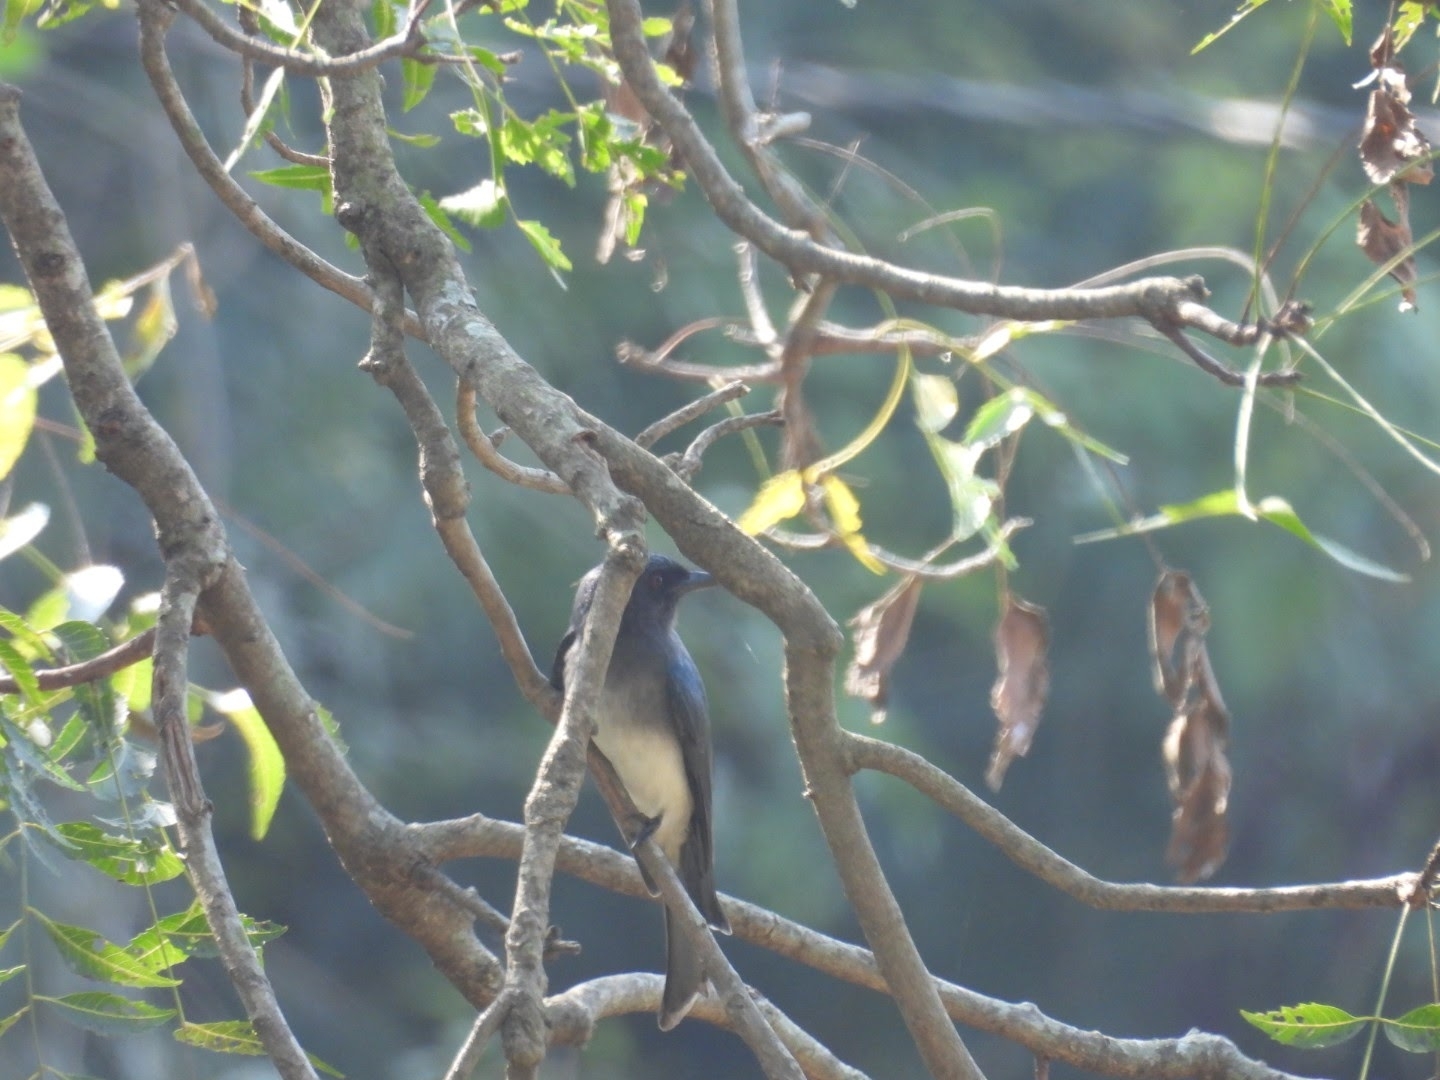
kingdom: Animalia
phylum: Chordata
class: Aves
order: Passeriformes
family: Dicruridae
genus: Dicrurus
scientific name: Dicrurus caerulescens
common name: White-bellied drongo
